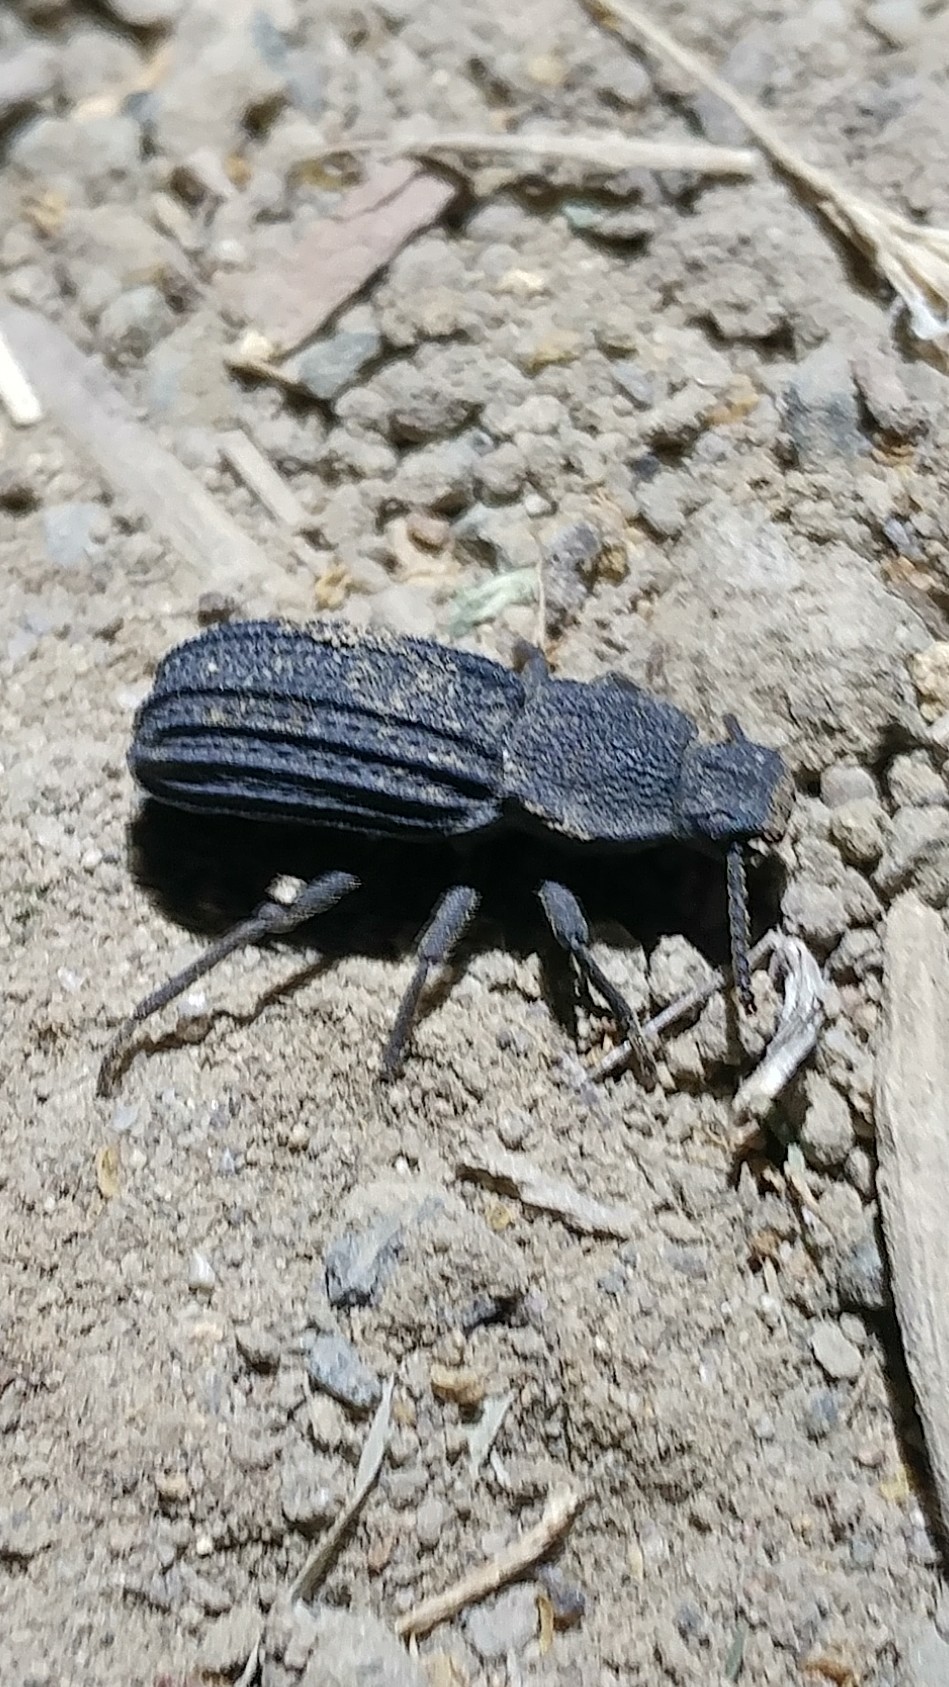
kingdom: Animalia
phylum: Arthropoda
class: Insecta
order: Coleoptera
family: Tenebrionidae
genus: Nyctoporis
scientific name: Nyctoporis carinata
